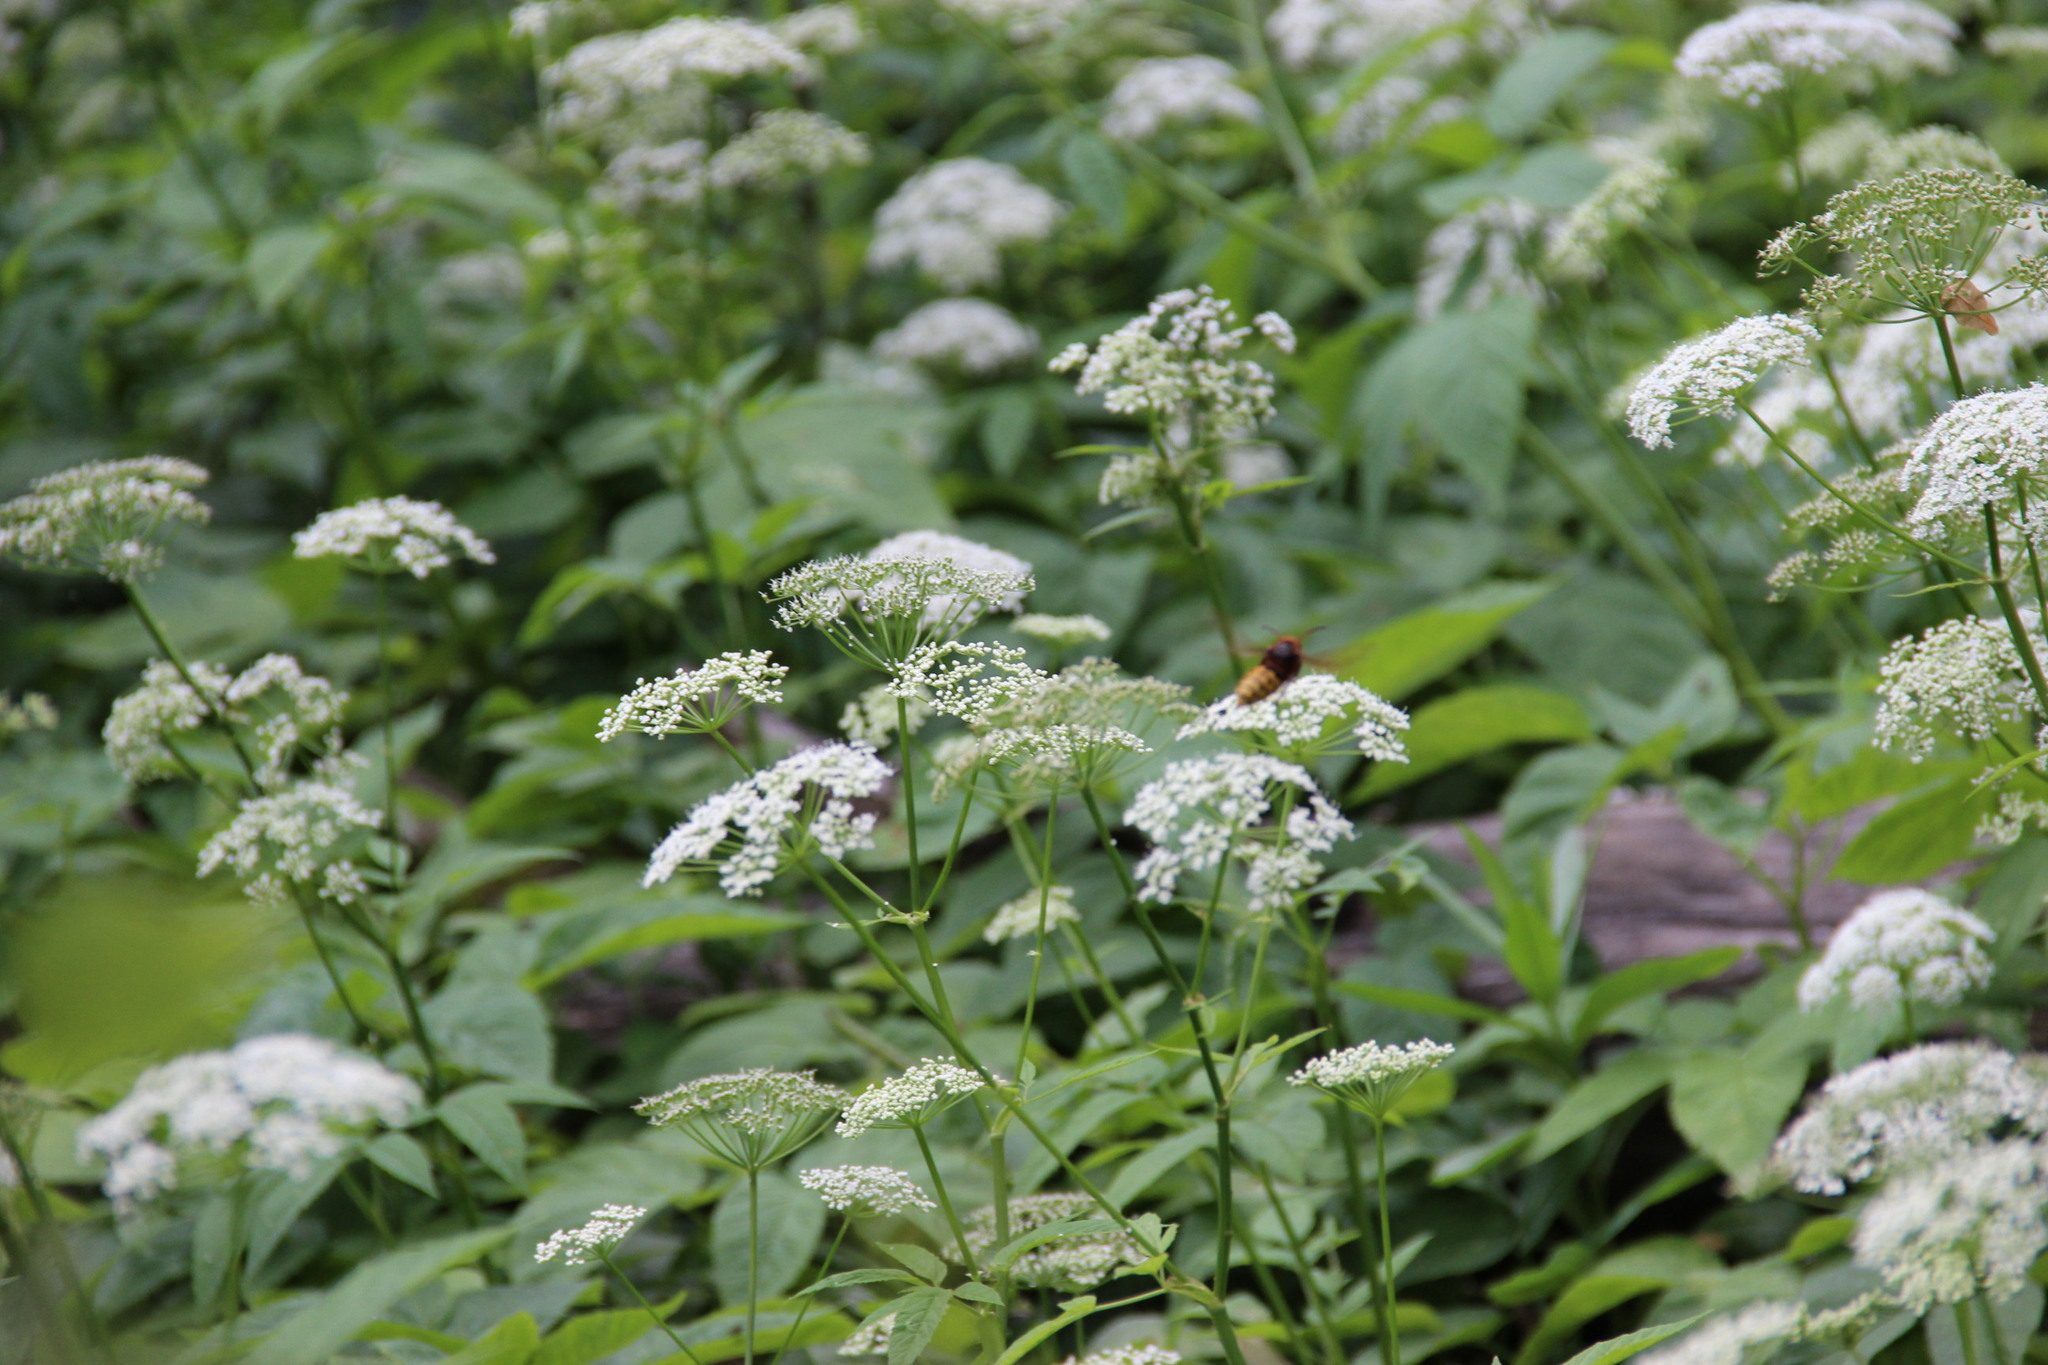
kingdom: Plantae
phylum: Tracheophyta
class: Magnoliopsida
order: Apiales
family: Apiaceae
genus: Aegopodium
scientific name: Aegopodium podagraria
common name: Ground-elder
